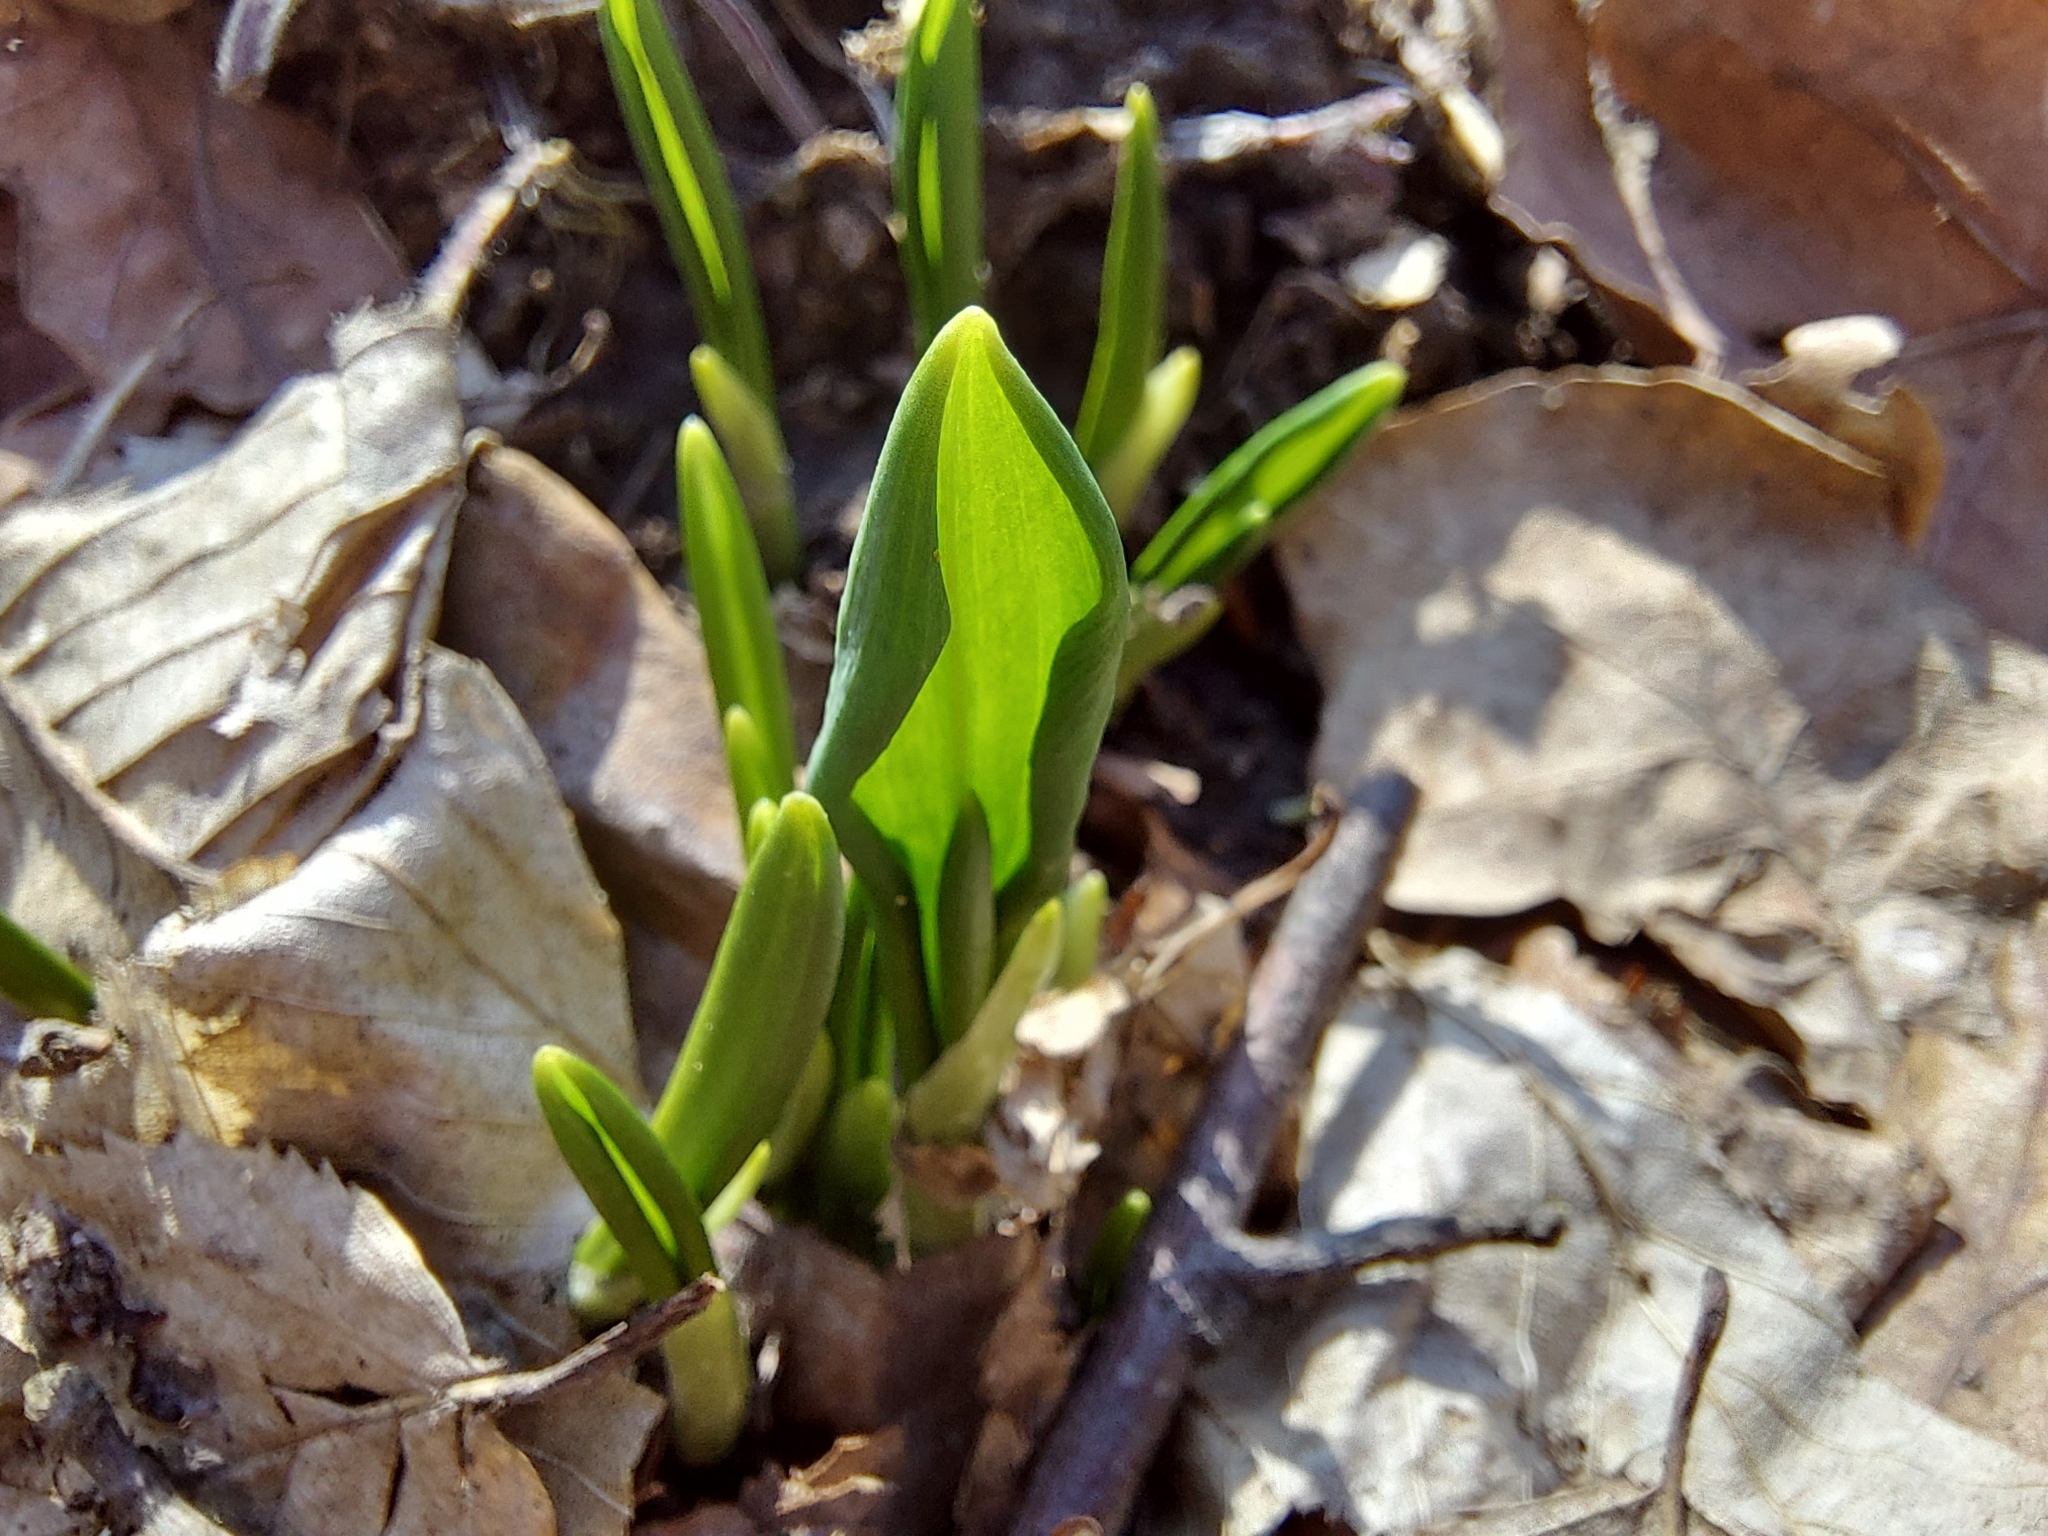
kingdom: Plantae
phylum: Tracheophyta
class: Liliopsida
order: Asparagales
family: Amaryllidaceae
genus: Allium
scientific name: Allium ursinum
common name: Ramsons
